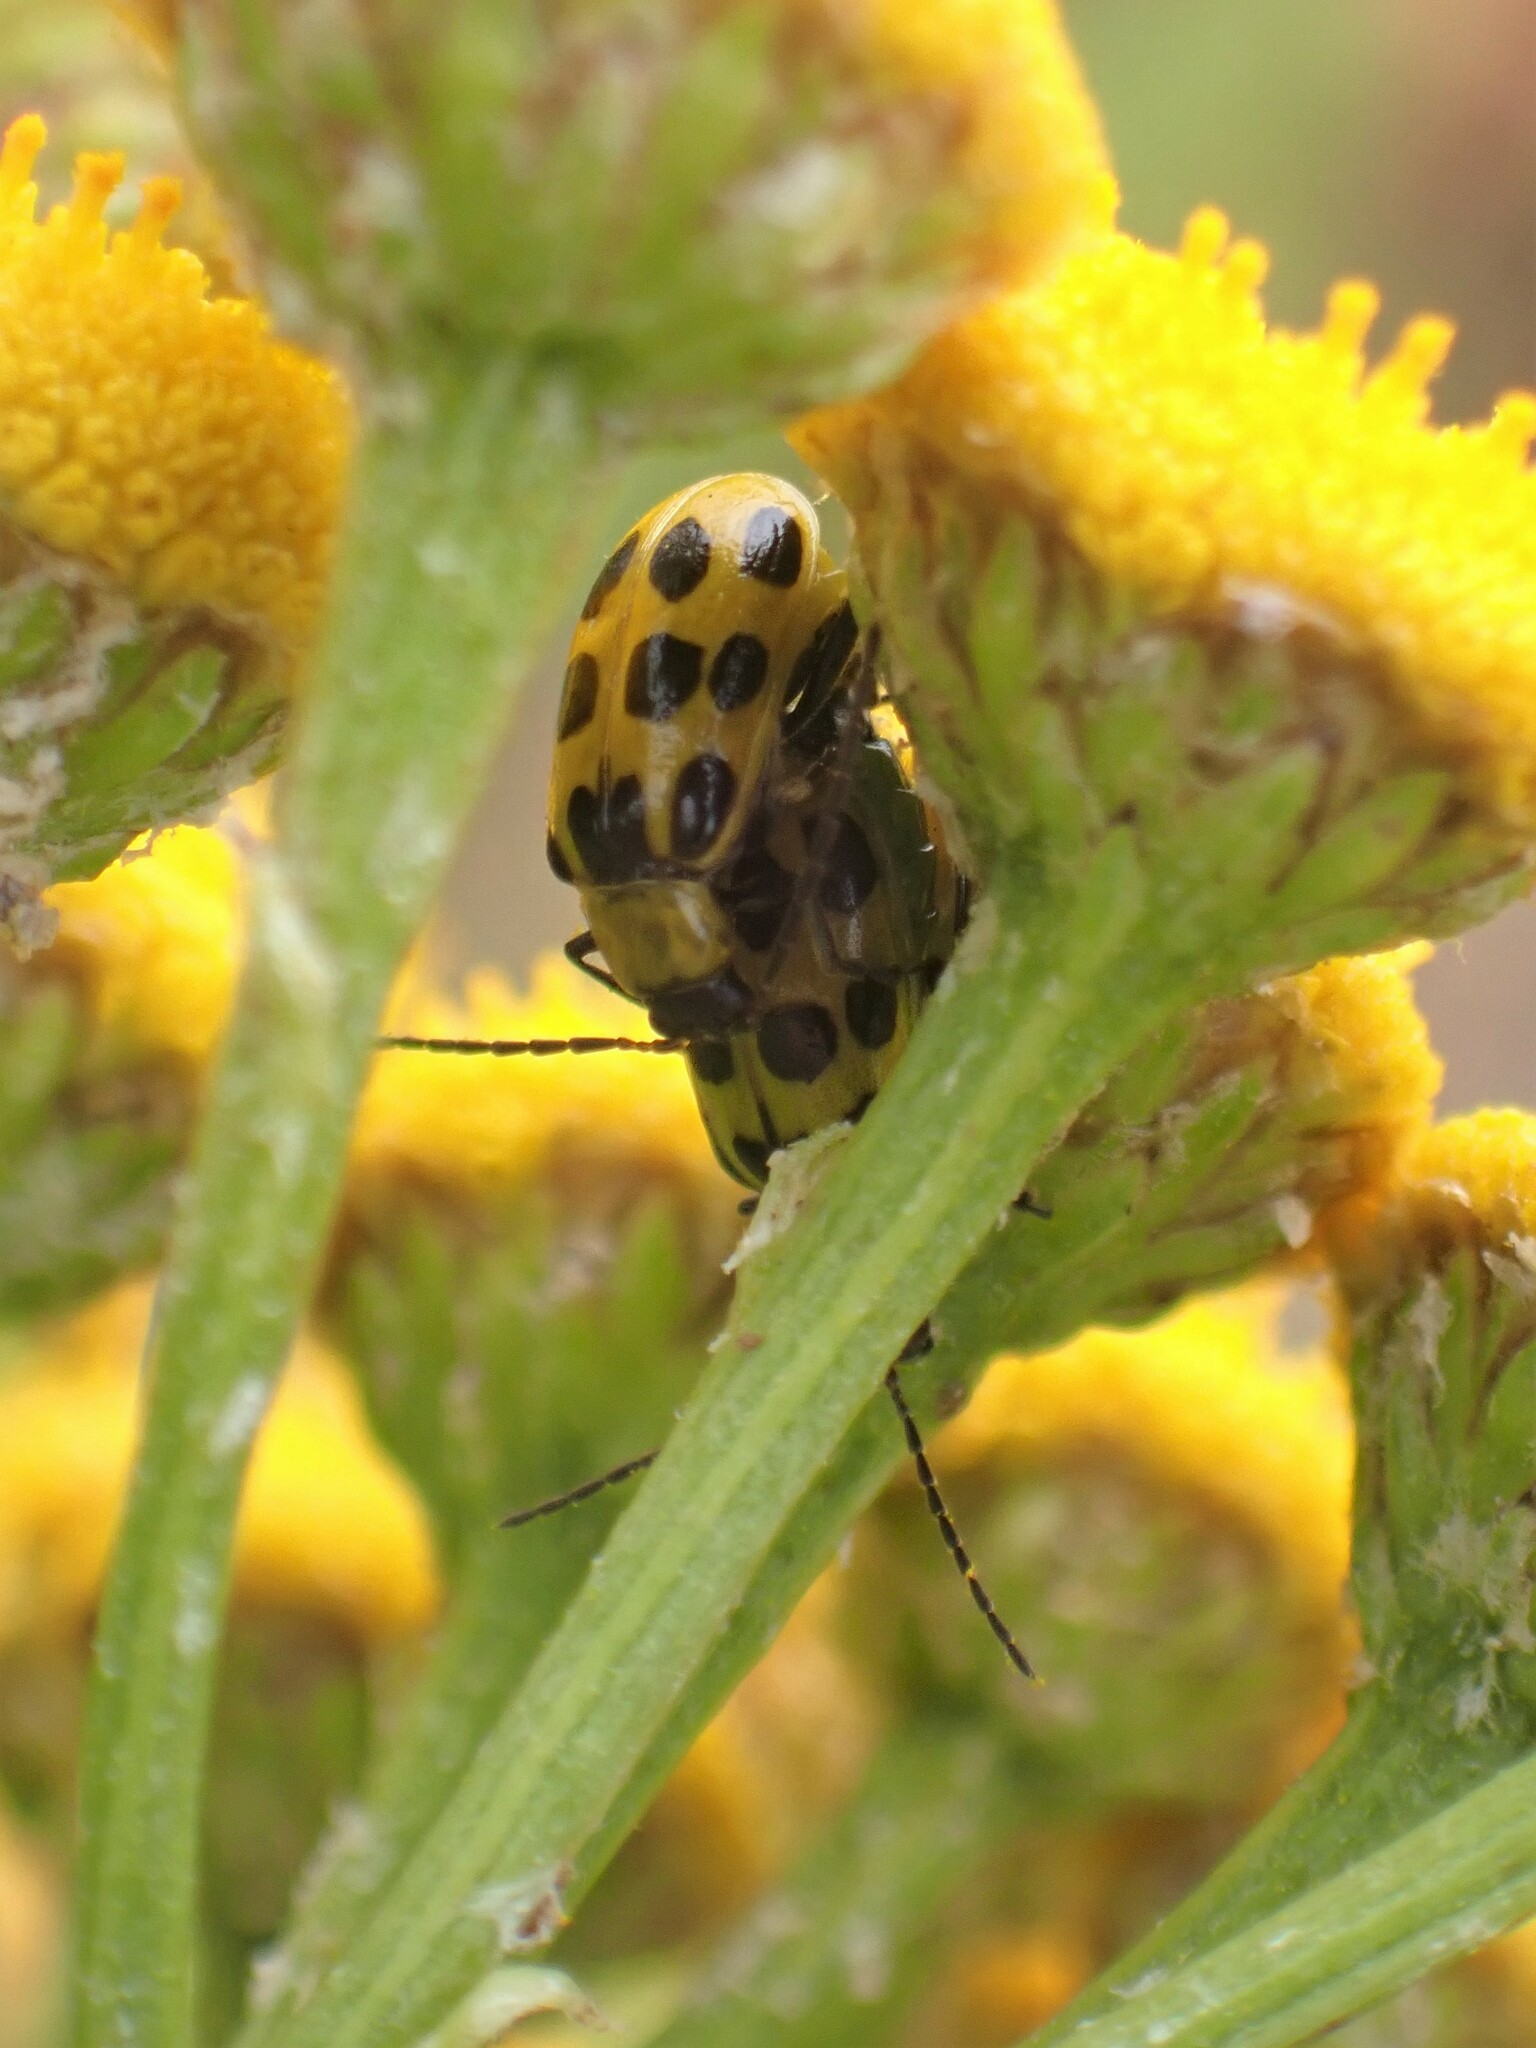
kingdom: Animalia
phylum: Arthropoda
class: Insecta
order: Coleoptera
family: Chrysomelidae
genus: Diabrotica
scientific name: Diabrotica undecimpunctata
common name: Spotted cucumber beetle
